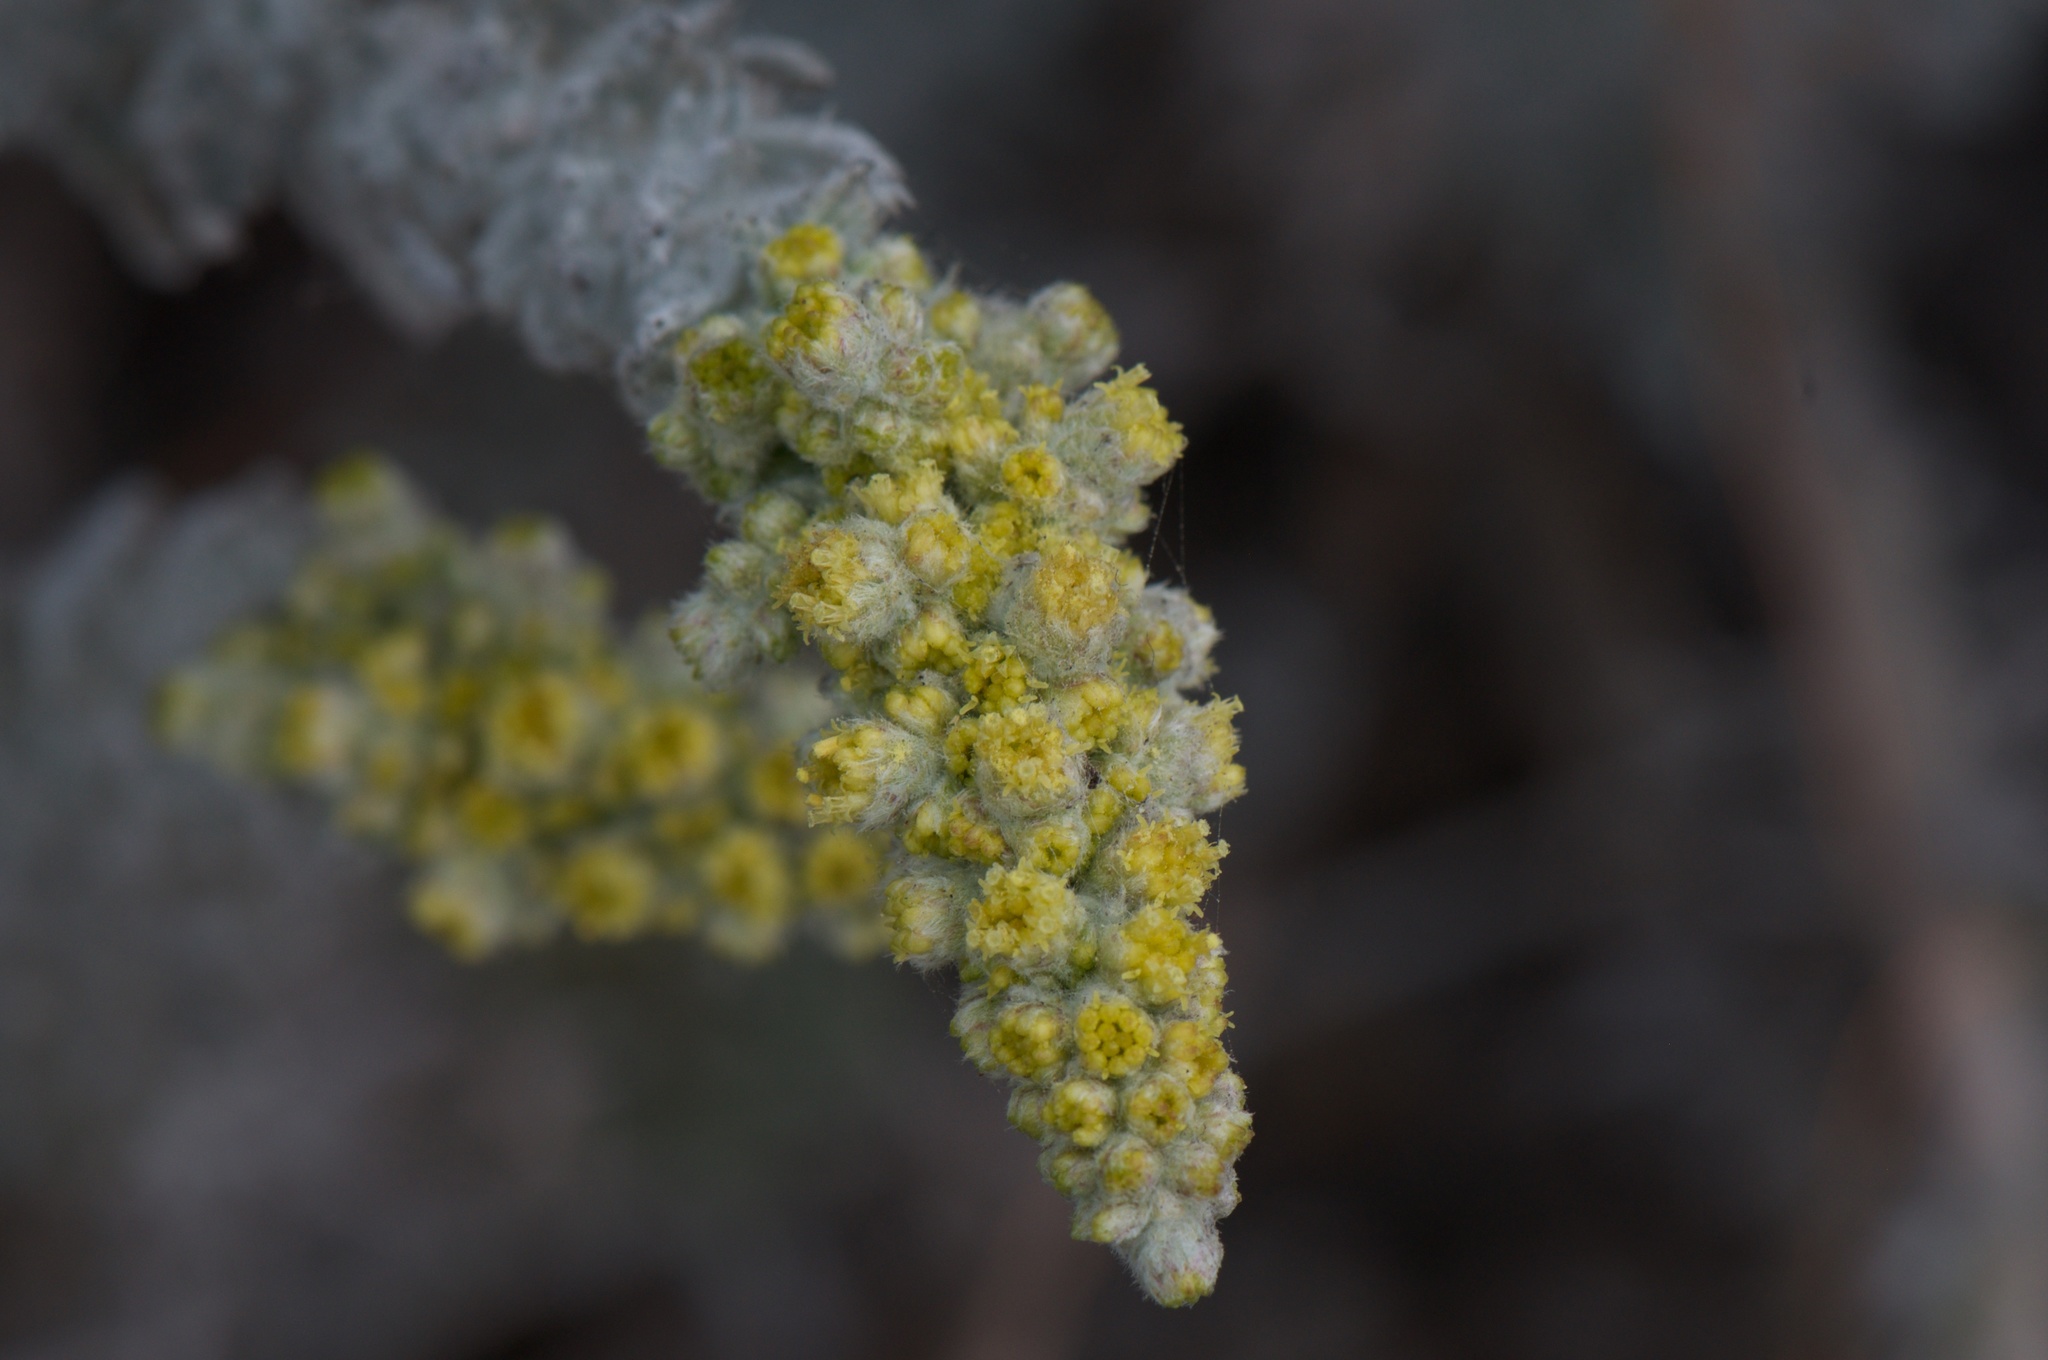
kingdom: Plantae
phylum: Tracheophyta
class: Magnoliopsida
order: Asterales
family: Asteraceae
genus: Artemisia
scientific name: Artemisia pycnocephala
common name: Coastal sagewort
